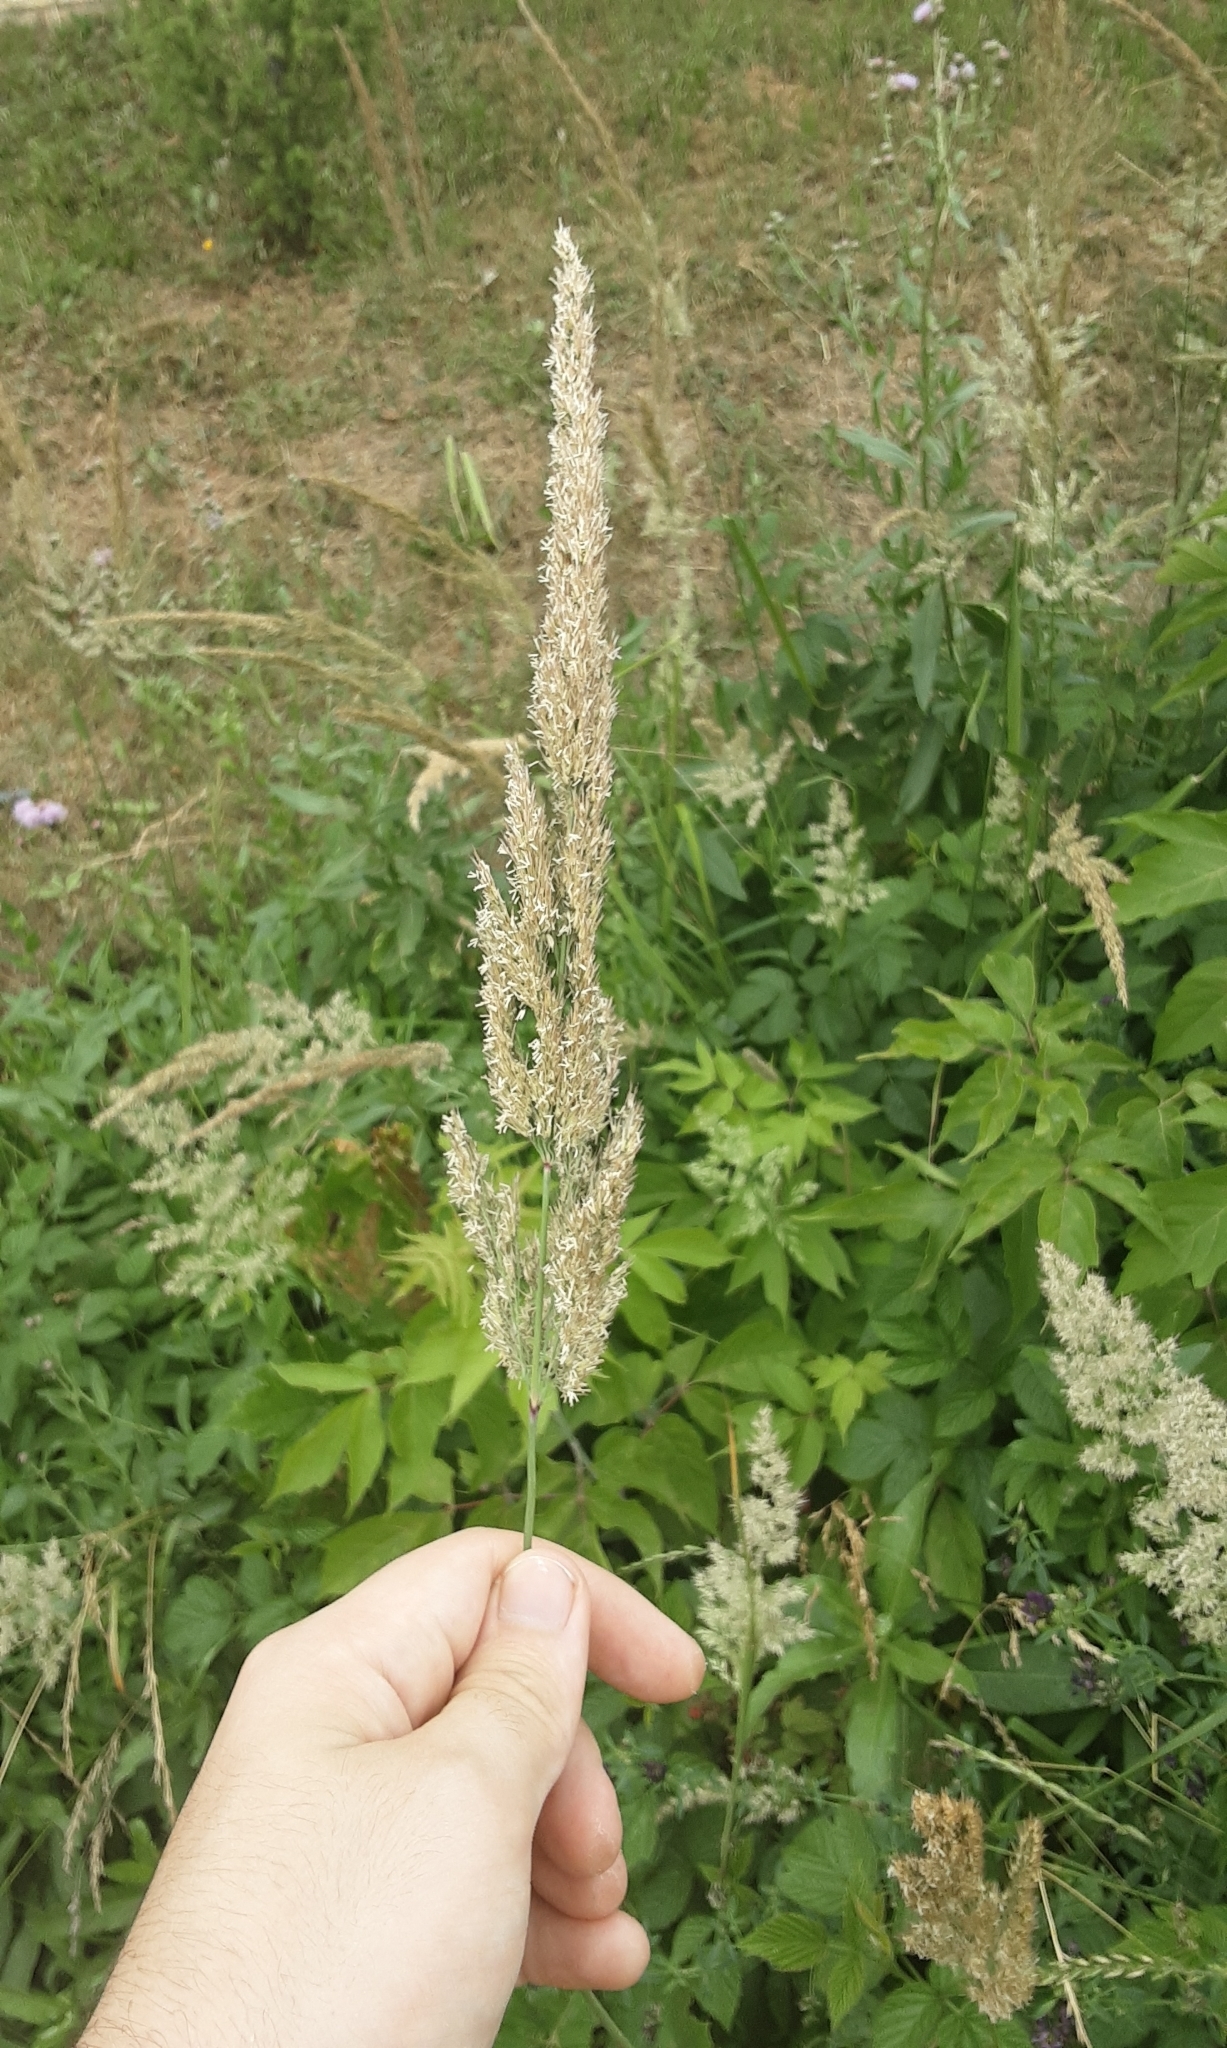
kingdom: Plantae
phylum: Tracheophyta
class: Liliopsida
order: Poales
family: Poaceae
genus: Calamagrostis
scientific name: Calamagrostis epigejos
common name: Wood small-reed
